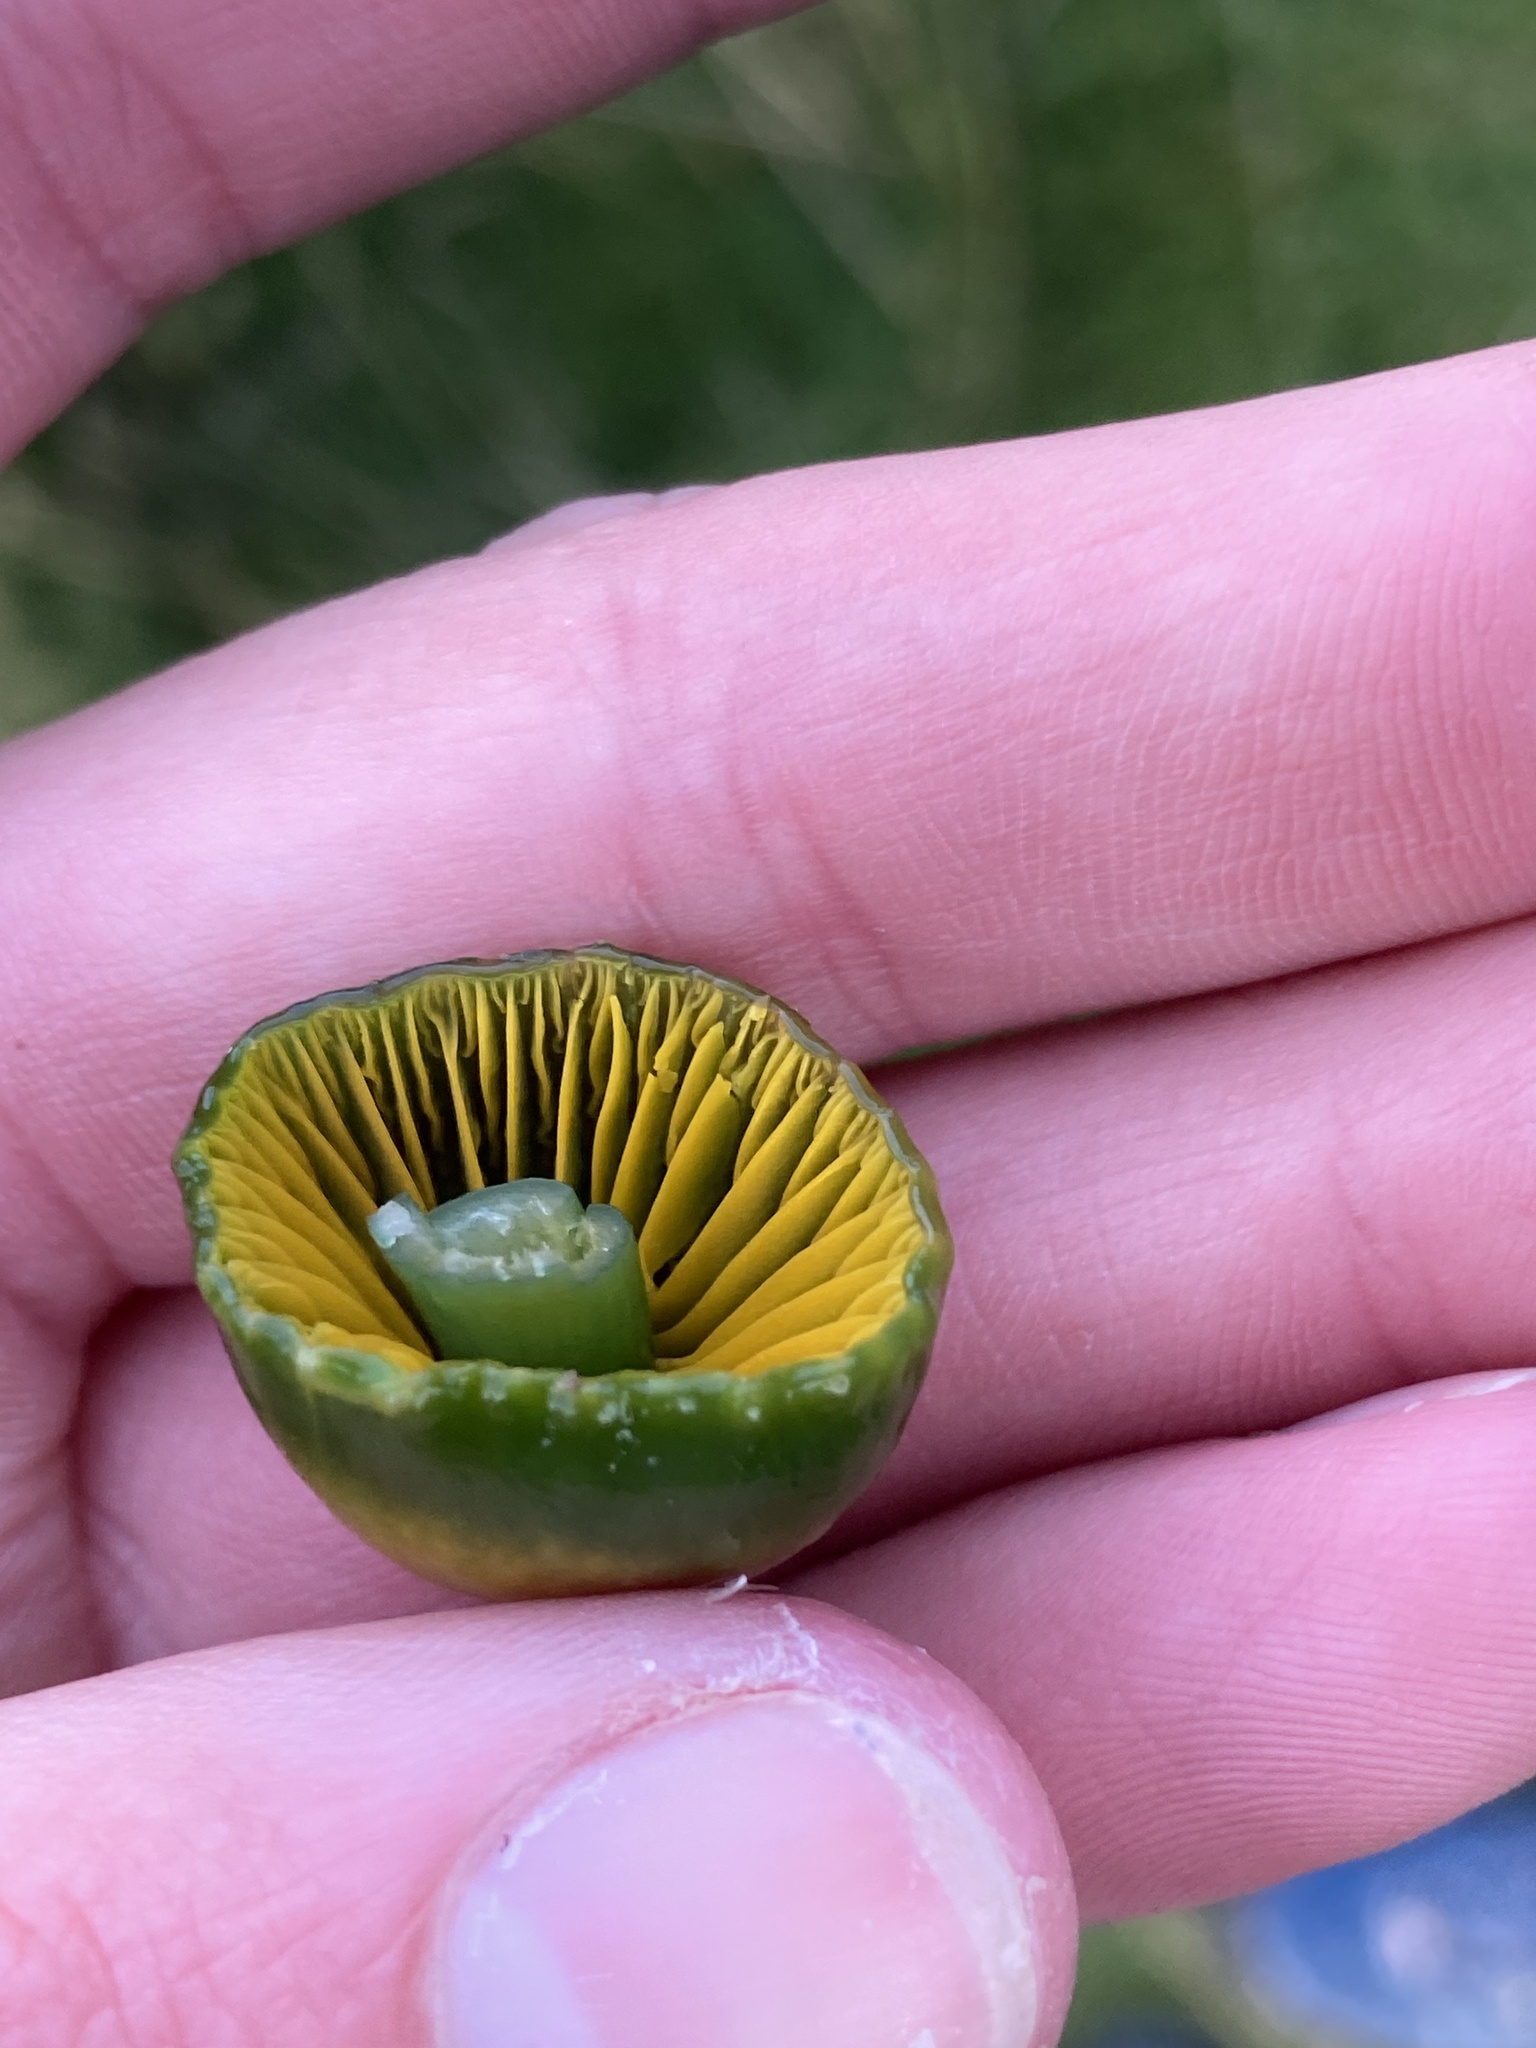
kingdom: Fungi
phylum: Basidiomycota
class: Agaricomycetes
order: Agaricales
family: Hygrophoraceae
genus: Gliophorus
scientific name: Gliophorus psittacinus
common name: Parrot wax-cap
